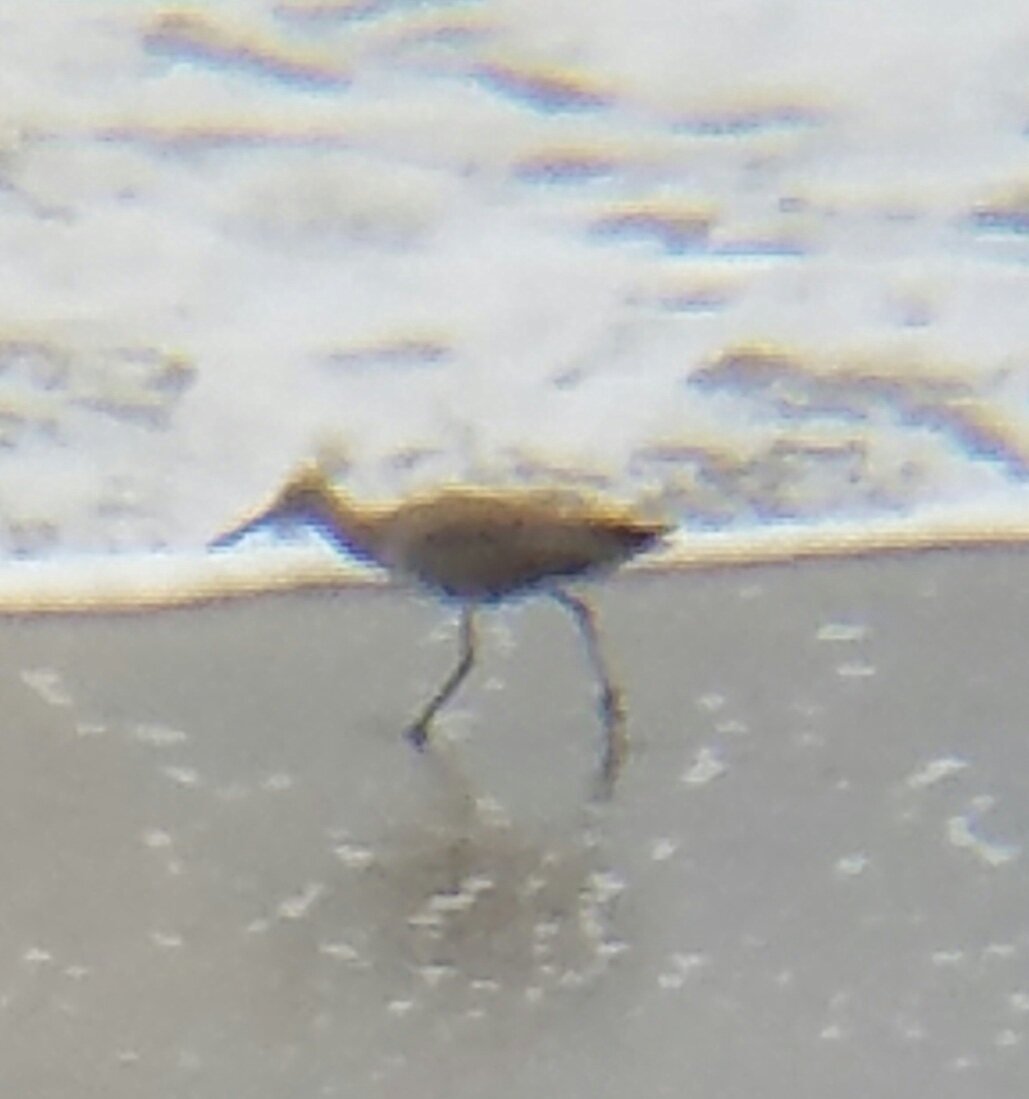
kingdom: Animalia
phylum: Chordata
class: Aves
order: Charadriiformes
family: Scolopacidae
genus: Tringa
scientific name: Tringa semipalmata
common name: Willet
